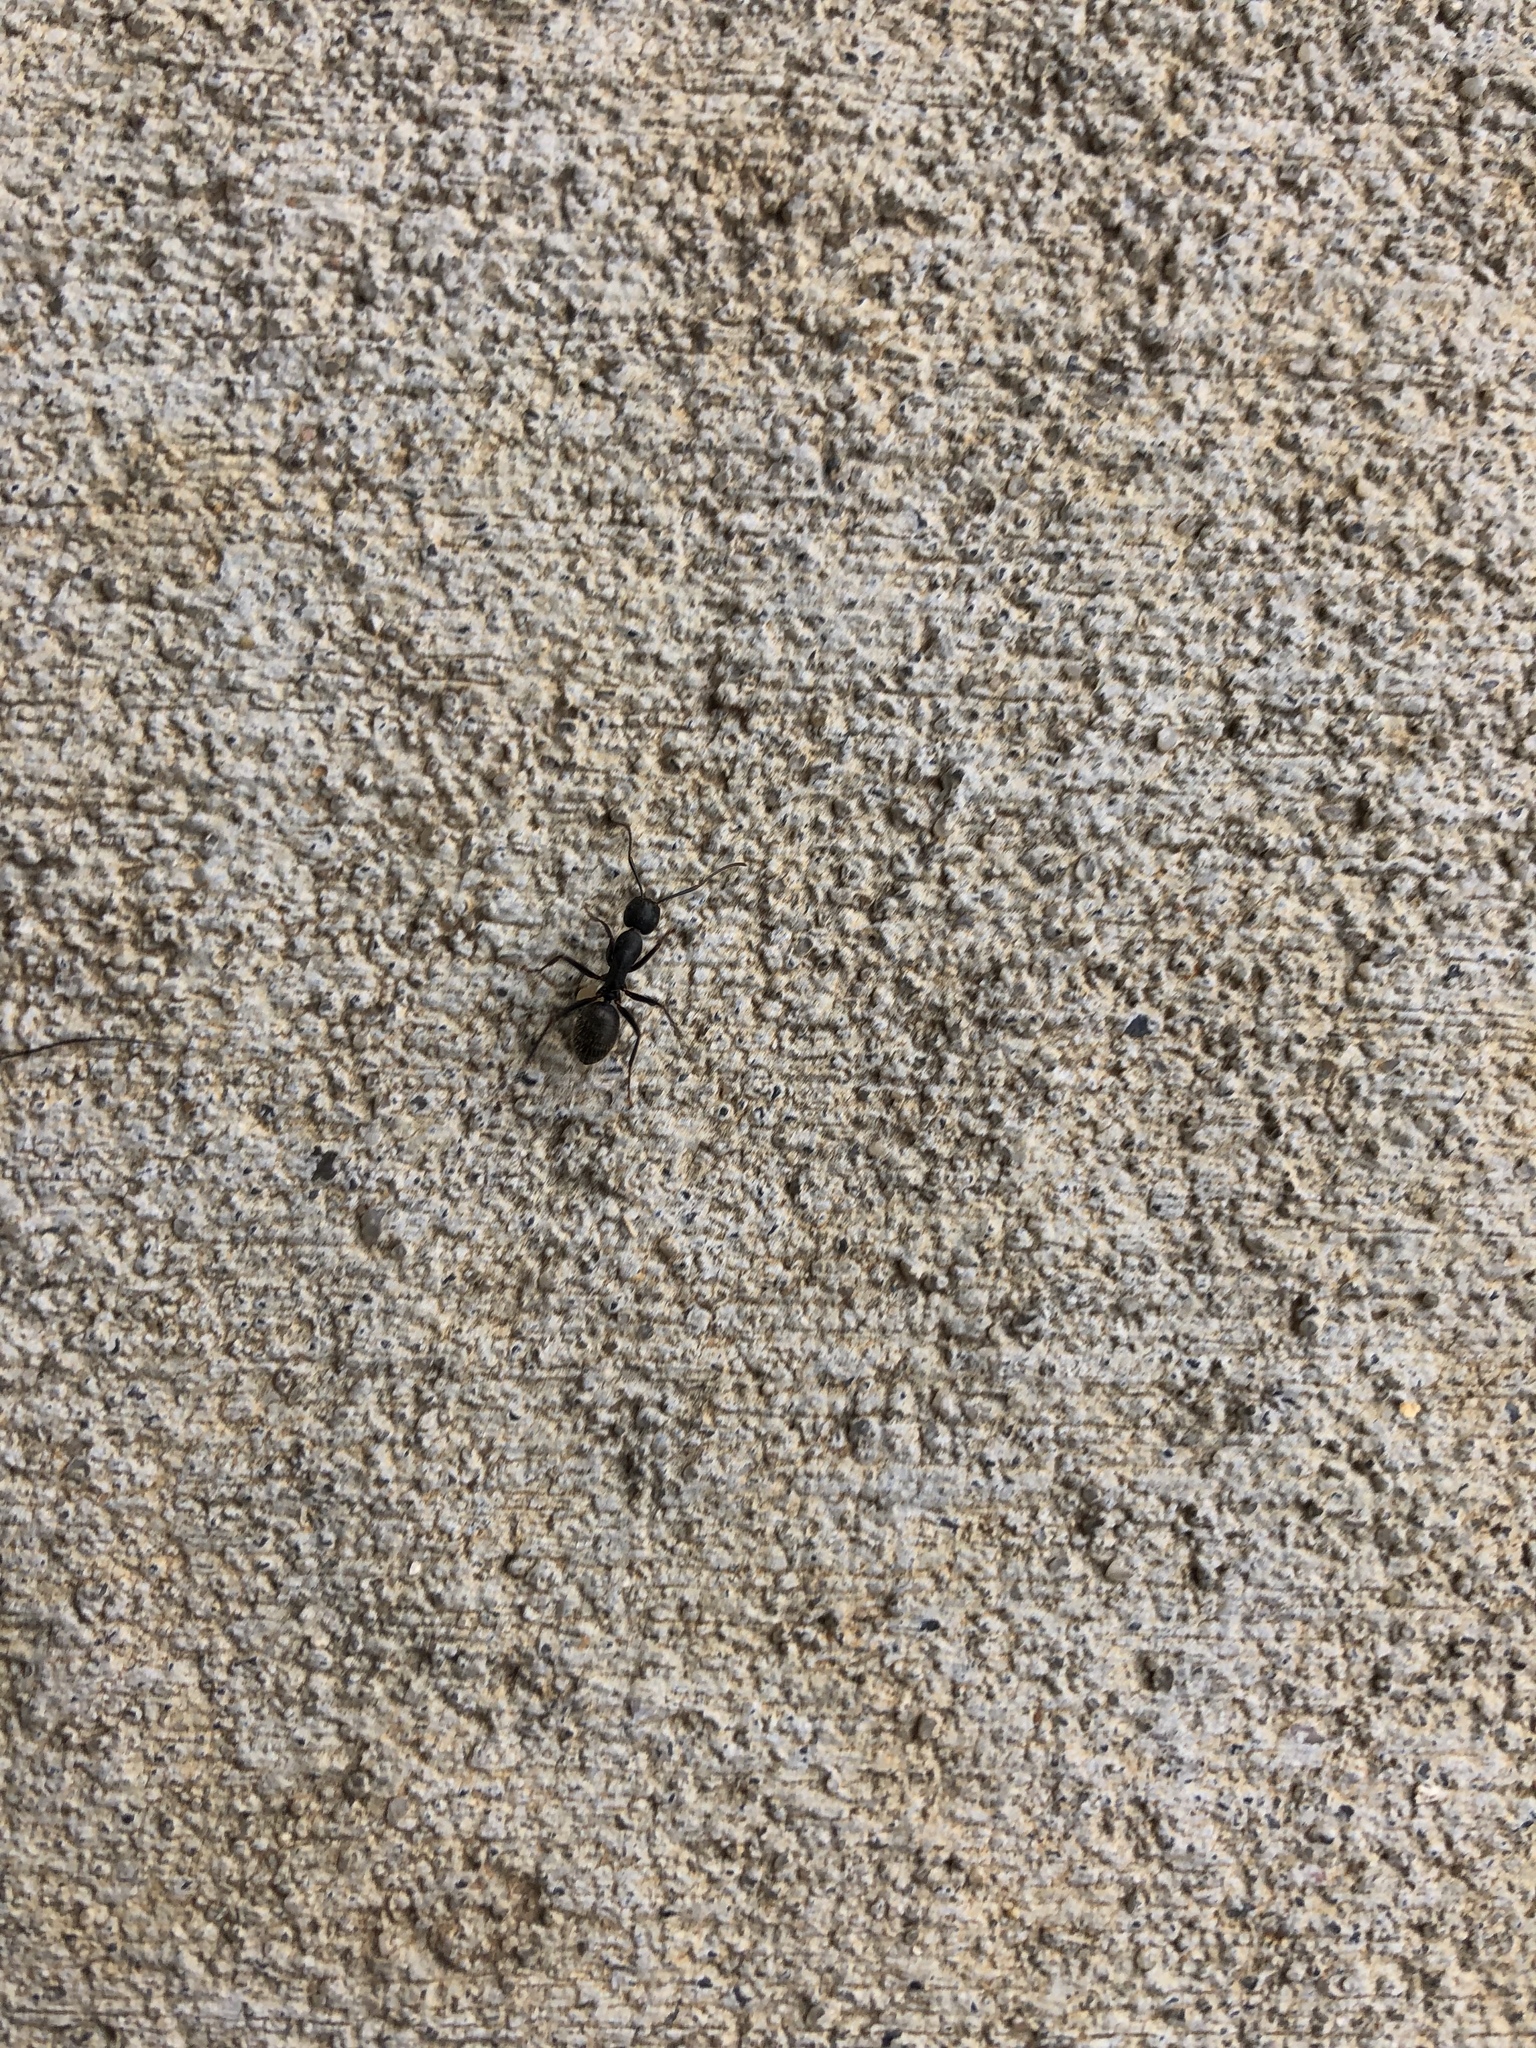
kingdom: Animalia
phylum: Arthropoda
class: Insecta
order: Hymenoptera
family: Formicidae
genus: Camponotus
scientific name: Camponotus pennsylvanicus
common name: Black carpenter ant
